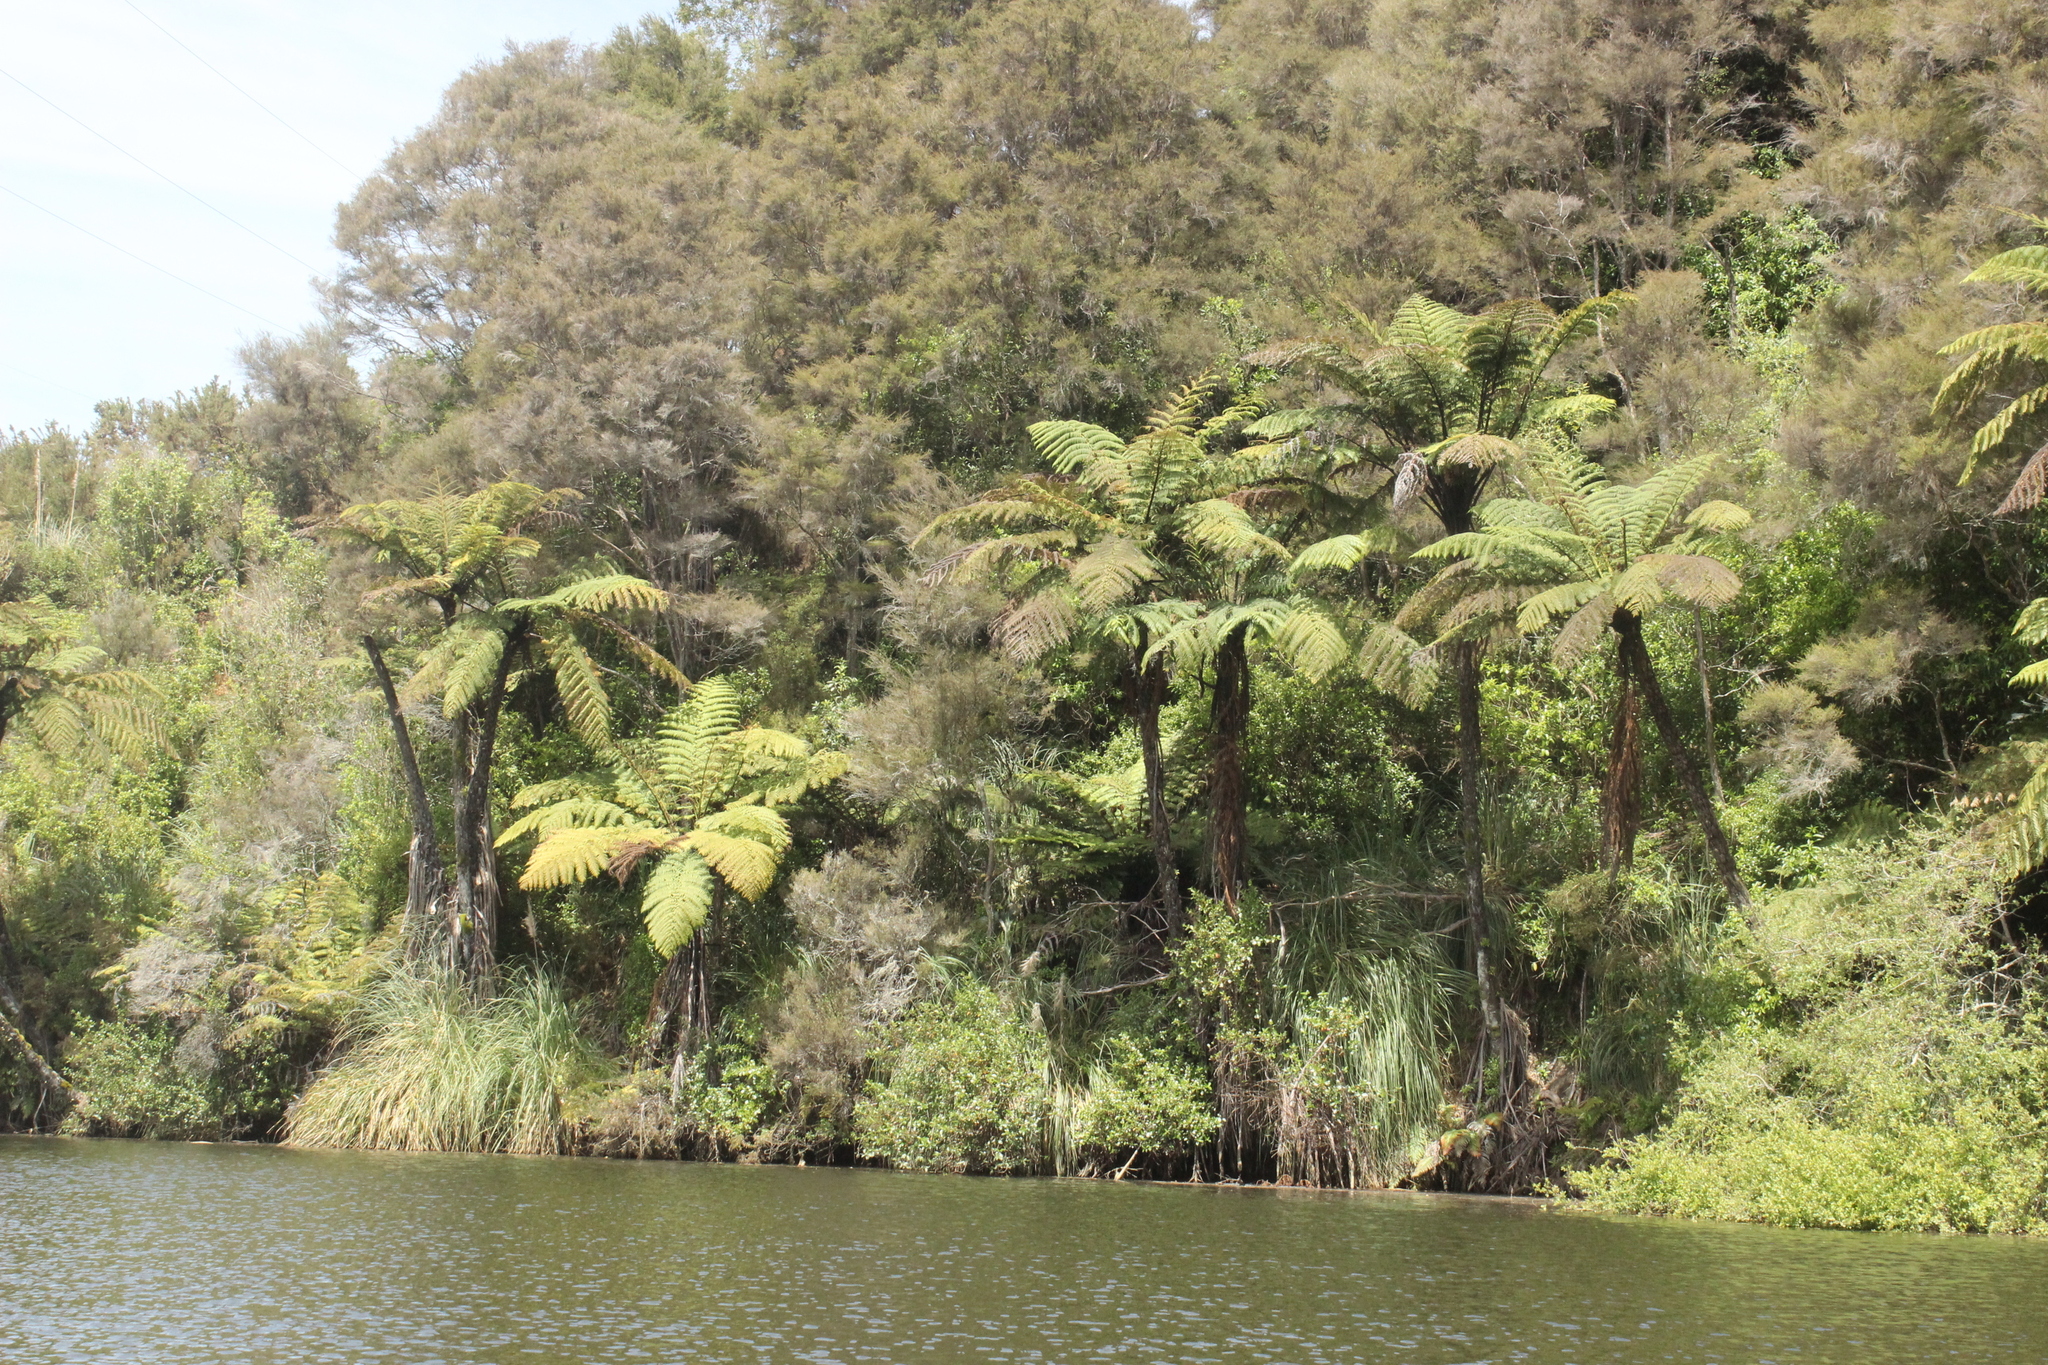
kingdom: Plantae
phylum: Tracheophyta
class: Polypodiopsida
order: Cyatheales
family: Cyatheaceae
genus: Sphaeropteris
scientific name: Sphaeropteris medullaris
